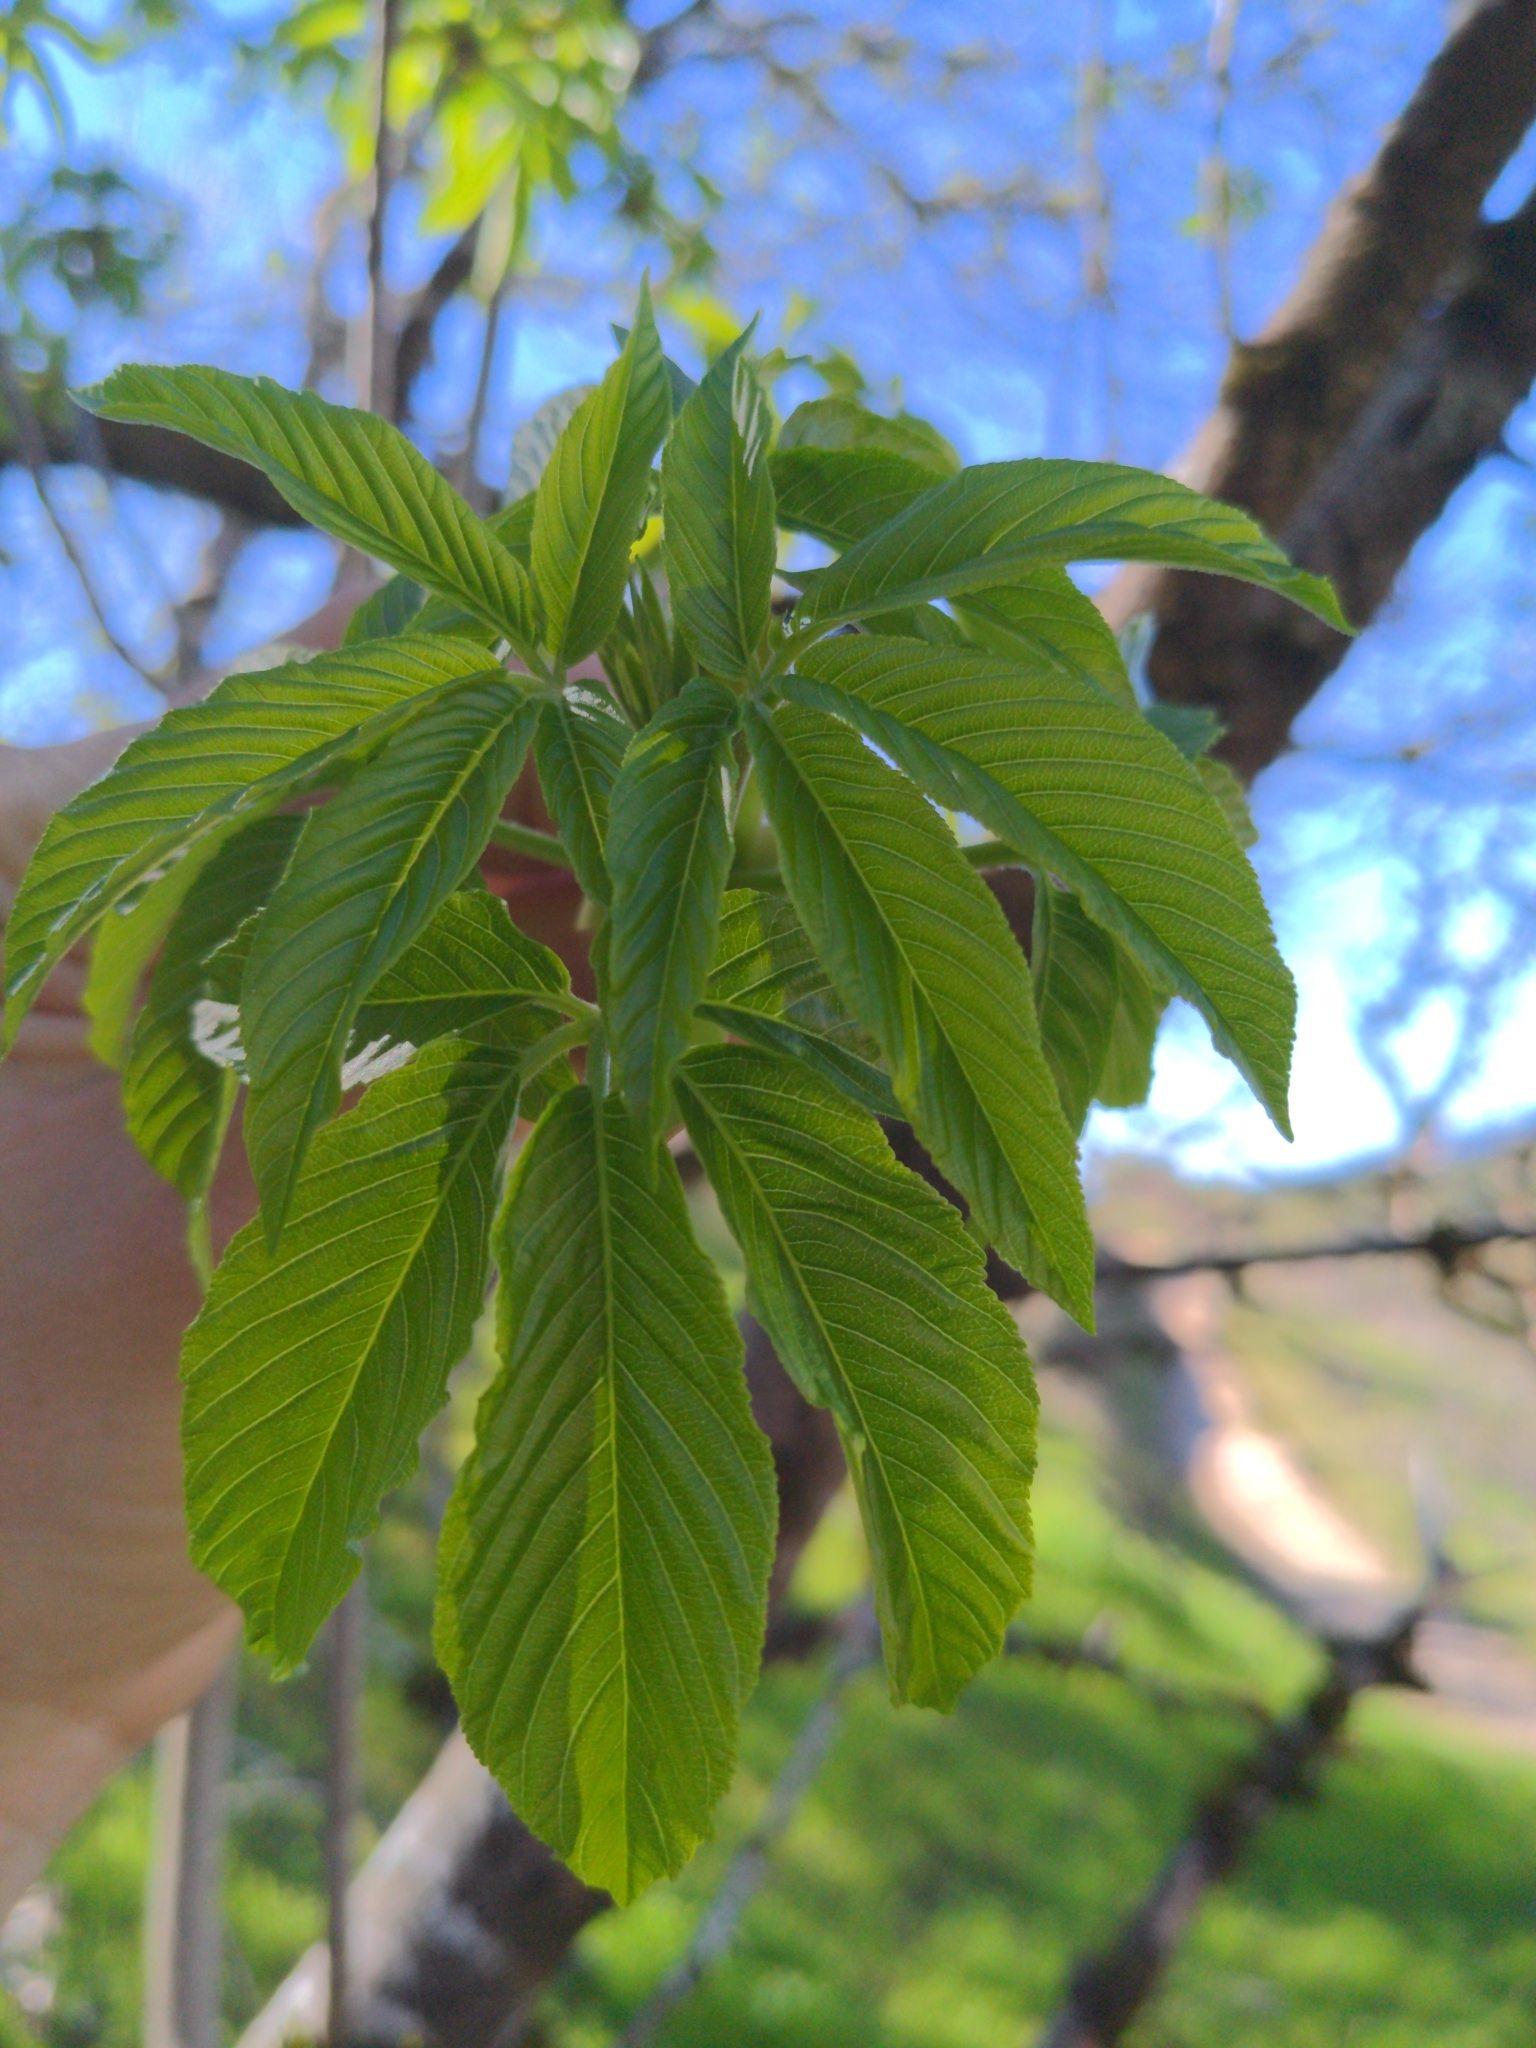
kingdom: Plantae
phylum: Tracheophyta
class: Magnoliopsida
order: Sapindales
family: Sapindaceae
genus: Aesculus
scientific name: Aesculus californica
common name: California buckeye
